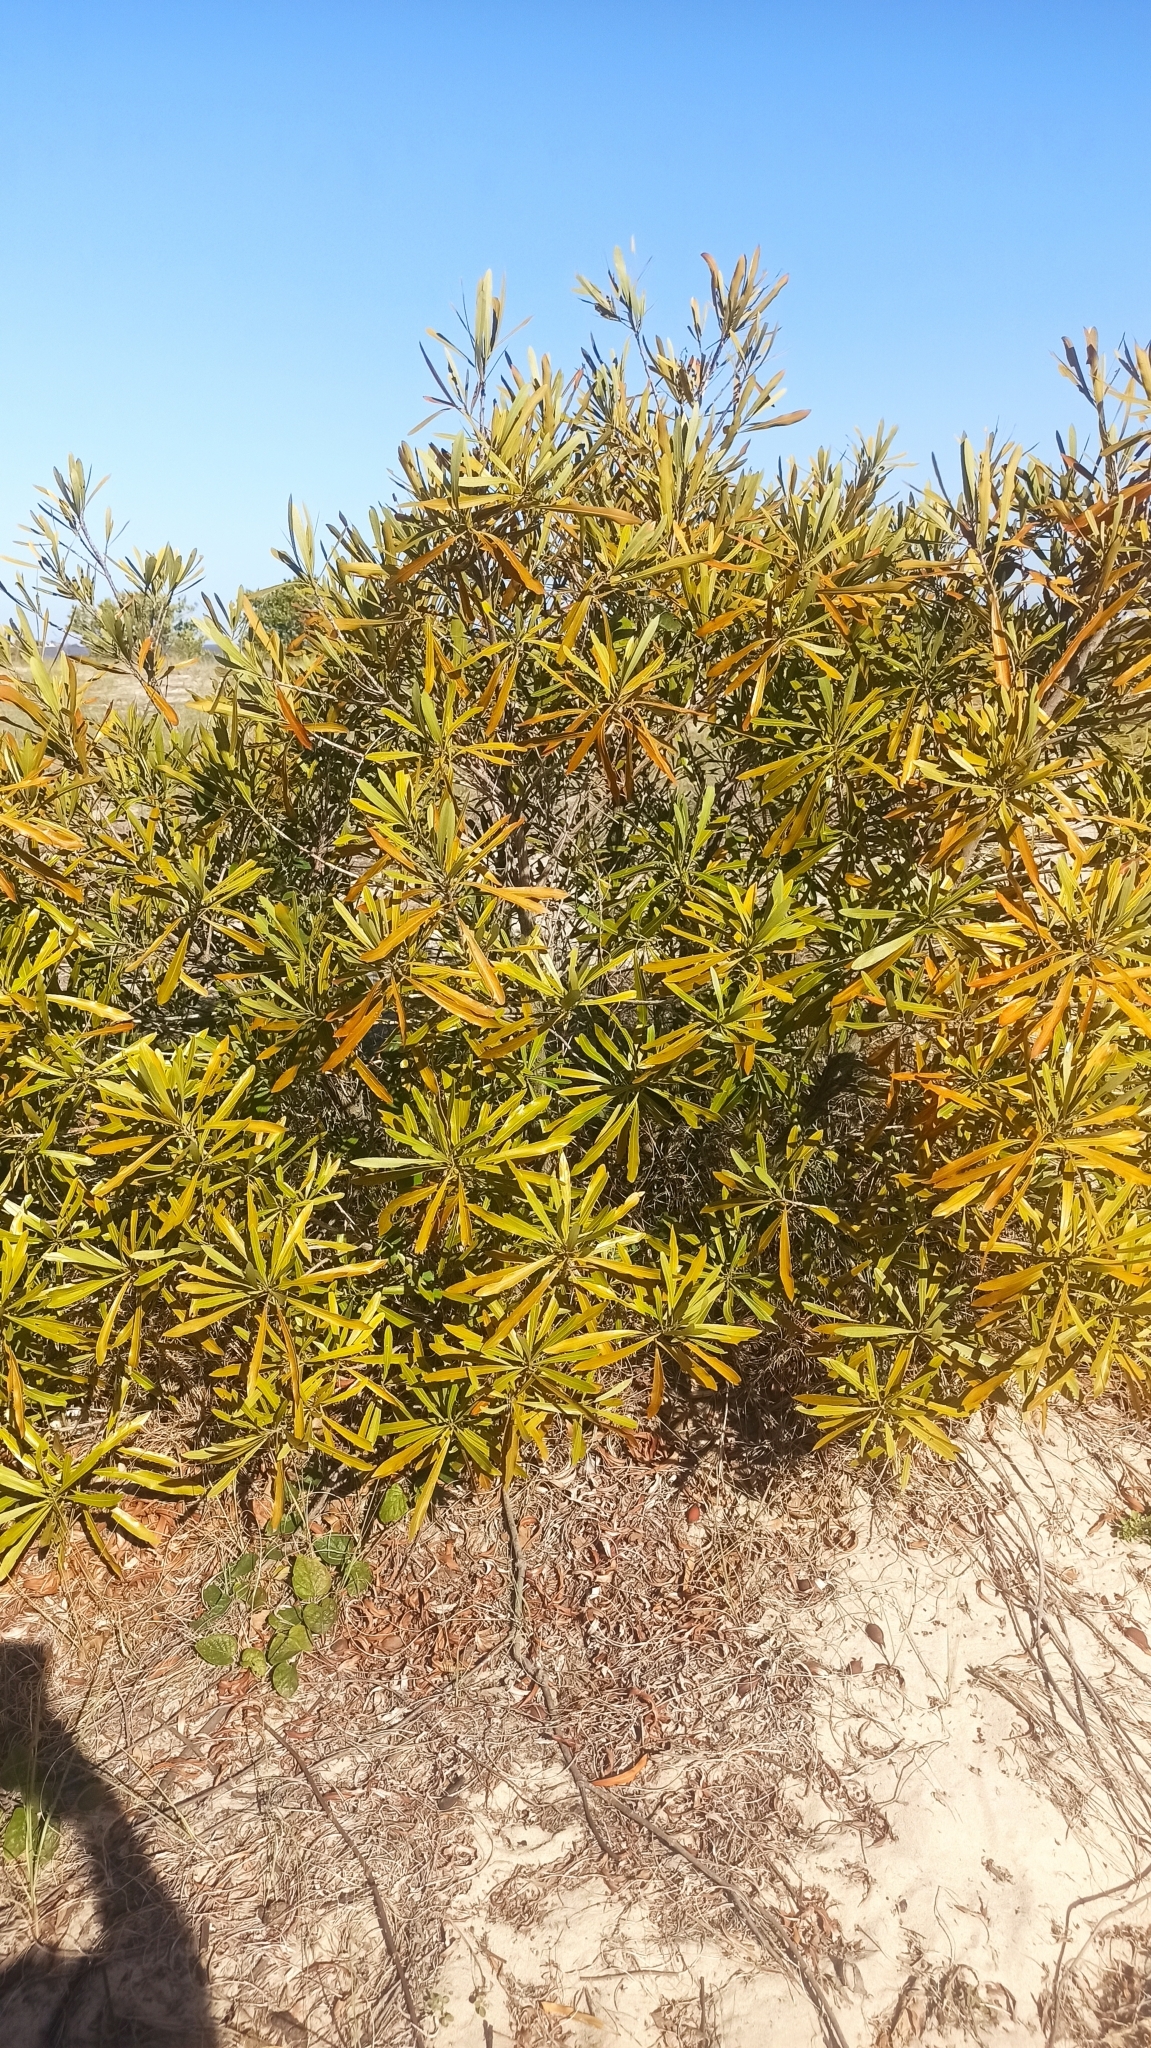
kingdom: Plantae
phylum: Tracheophyta
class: Magnoliopsida
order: Ericales
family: Sapotaceae
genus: Labatia
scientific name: Labatia salicifolia
